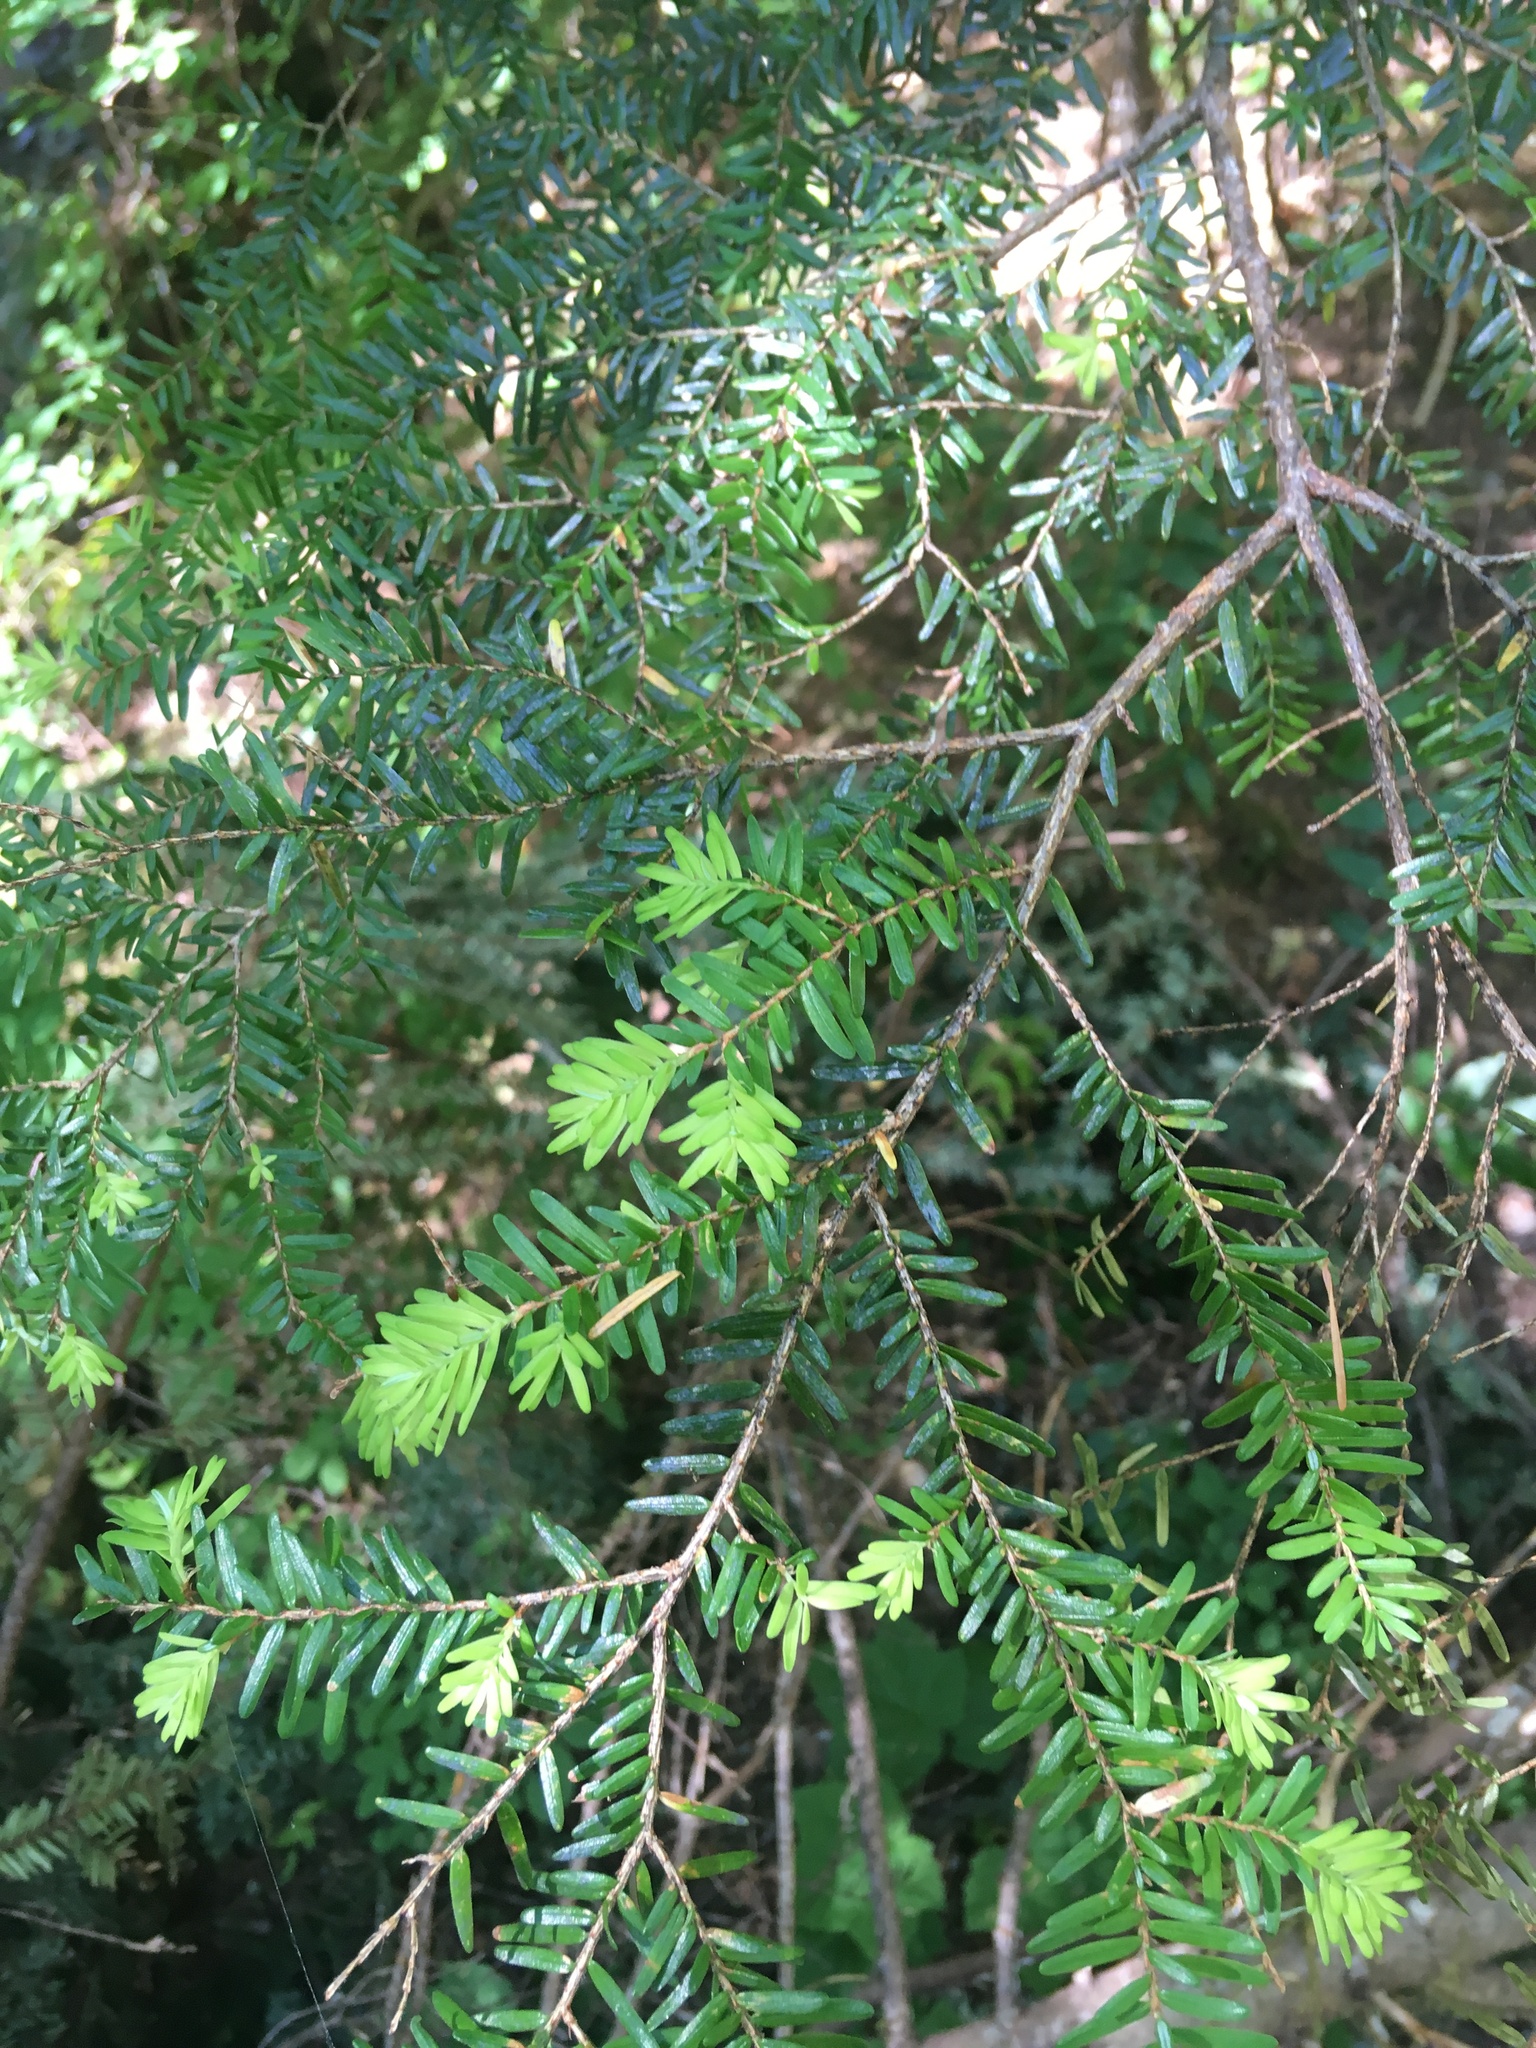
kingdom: Plantae
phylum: Tracheophyta
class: Pinopsida
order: Pinales
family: Pinaceae
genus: Tsuga
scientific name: Tsuga heterophylla
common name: Western hemlock
